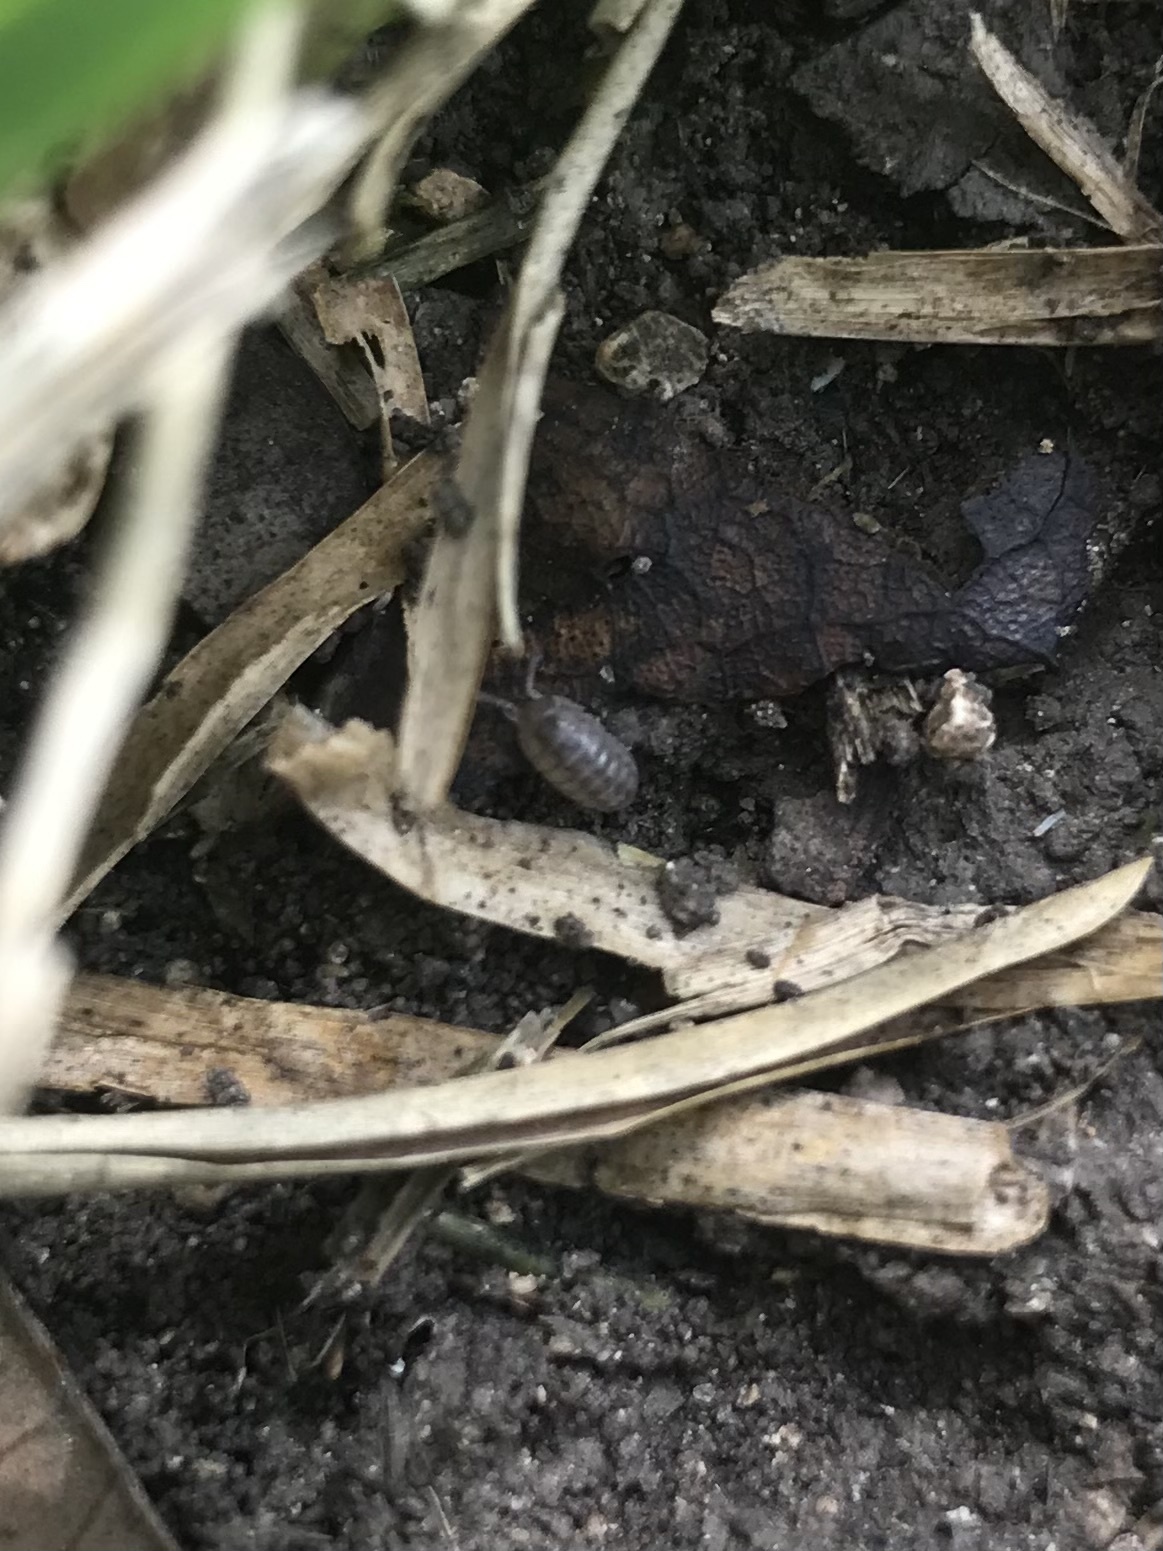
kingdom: Animalia
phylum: Arthropoda
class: Malacostraca
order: Isopoda
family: Armadillidiidae
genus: Armadillidium
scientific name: Armadillidium vulgare
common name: Common pill woodlouse
